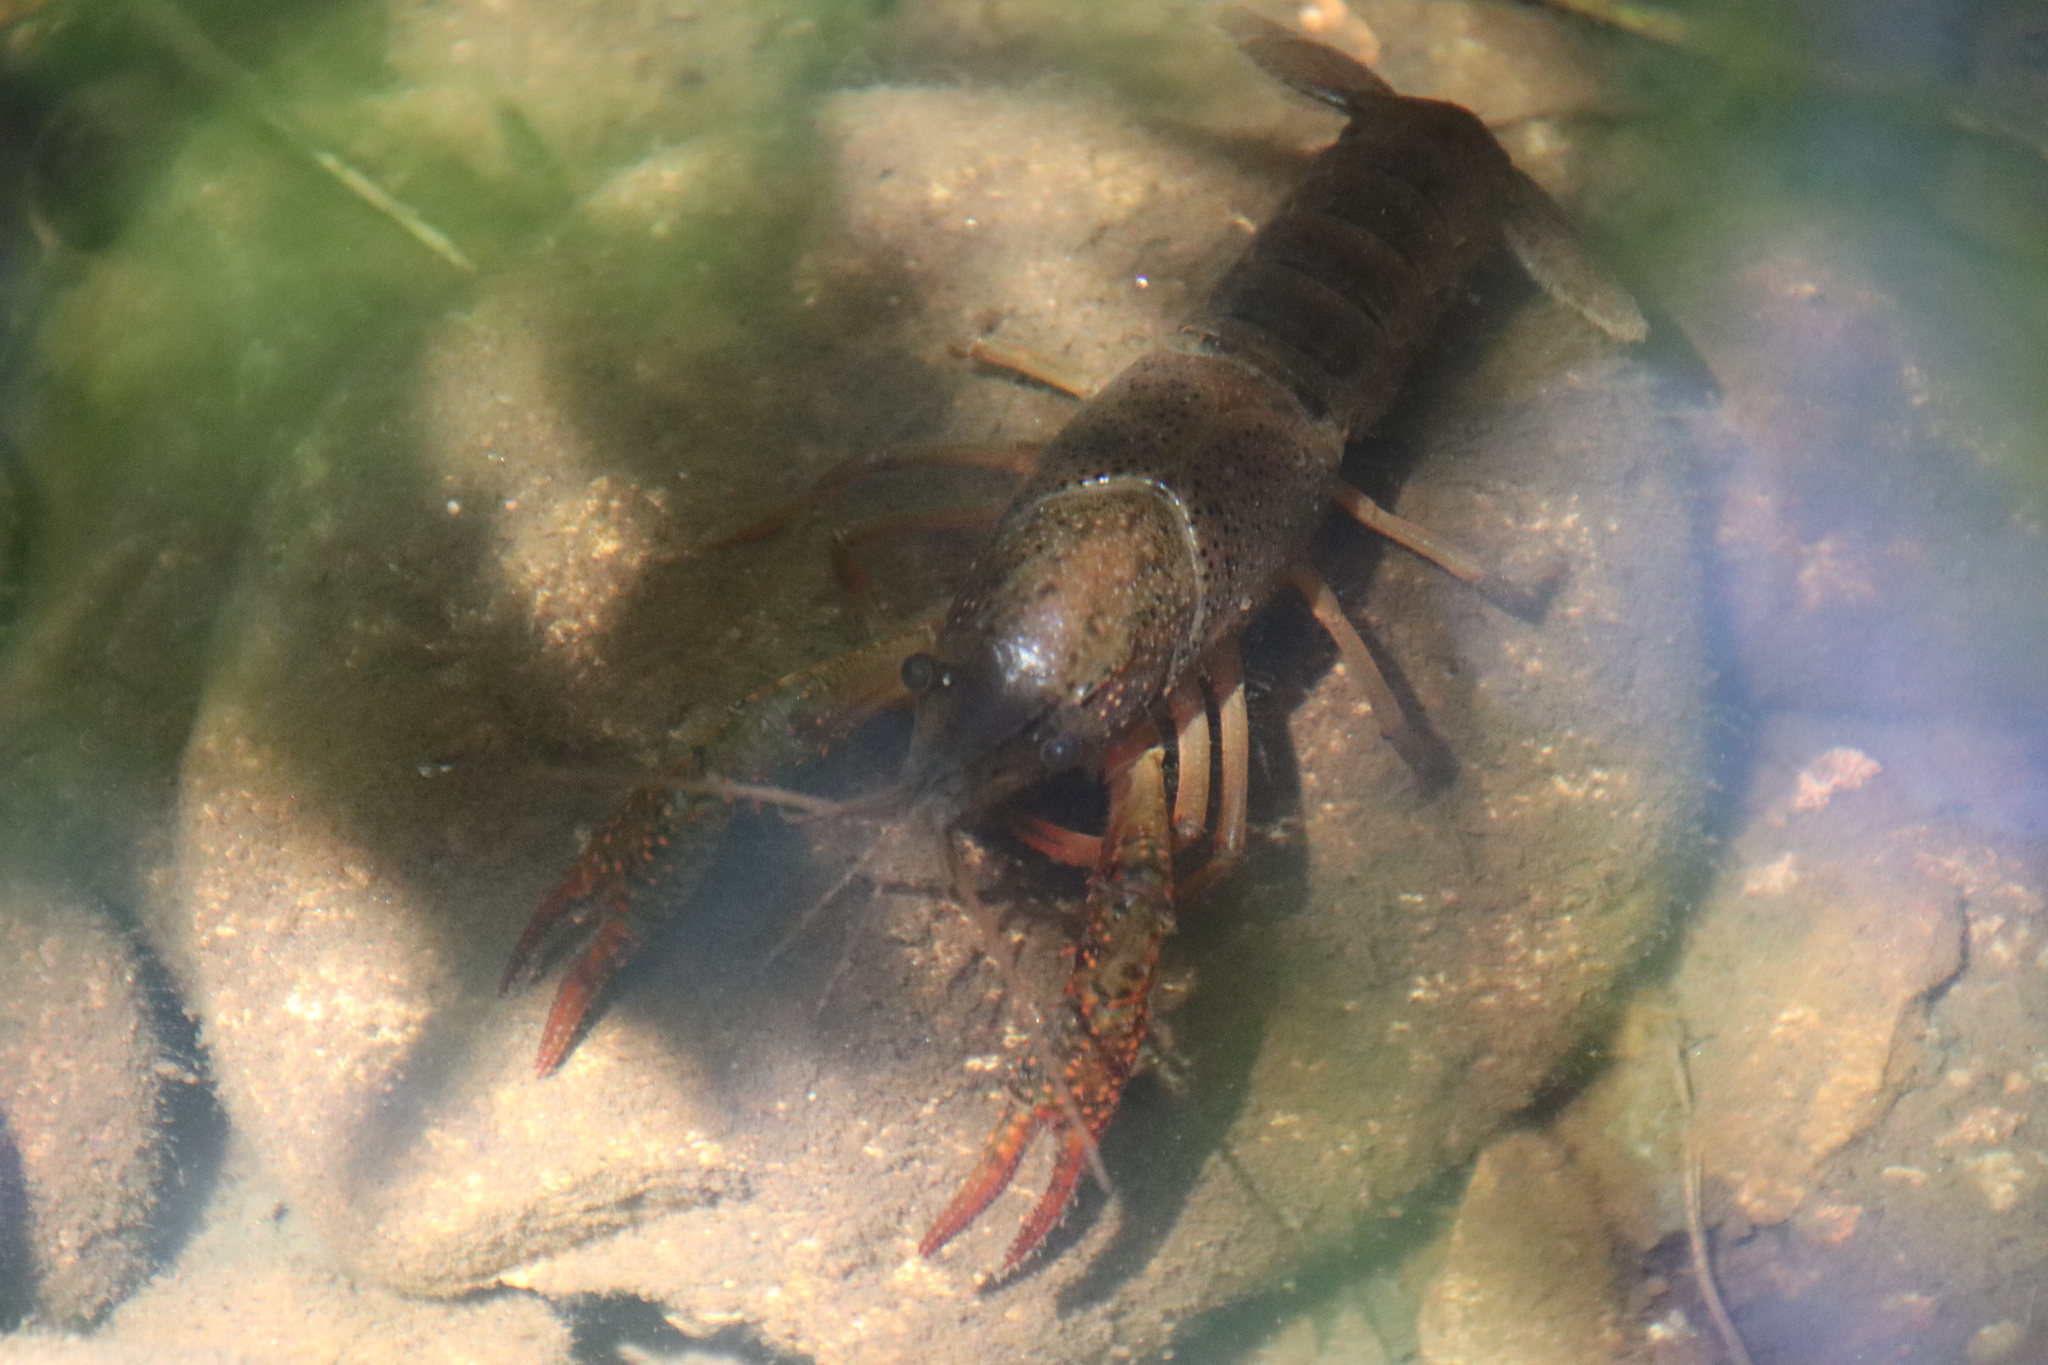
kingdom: Animalia
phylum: Arthropoda
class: Malacostraca
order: Decapoda
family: Cambaridae
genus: Procambarus
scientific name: Procambarus clarkii
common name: Red swamp crayfish
